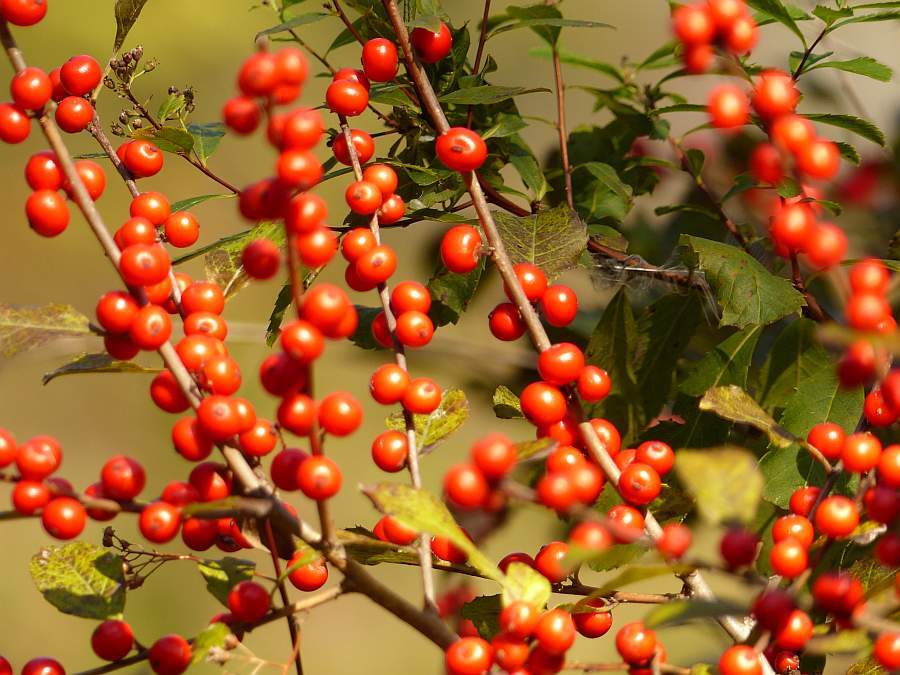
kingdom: Plantae
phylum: Tracheophyta
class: Magnoliopsida
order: Aquifoliales
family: Aquifoliaceae
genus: Ilex
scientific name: Ilex verticillata
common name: Virginia winterberry
